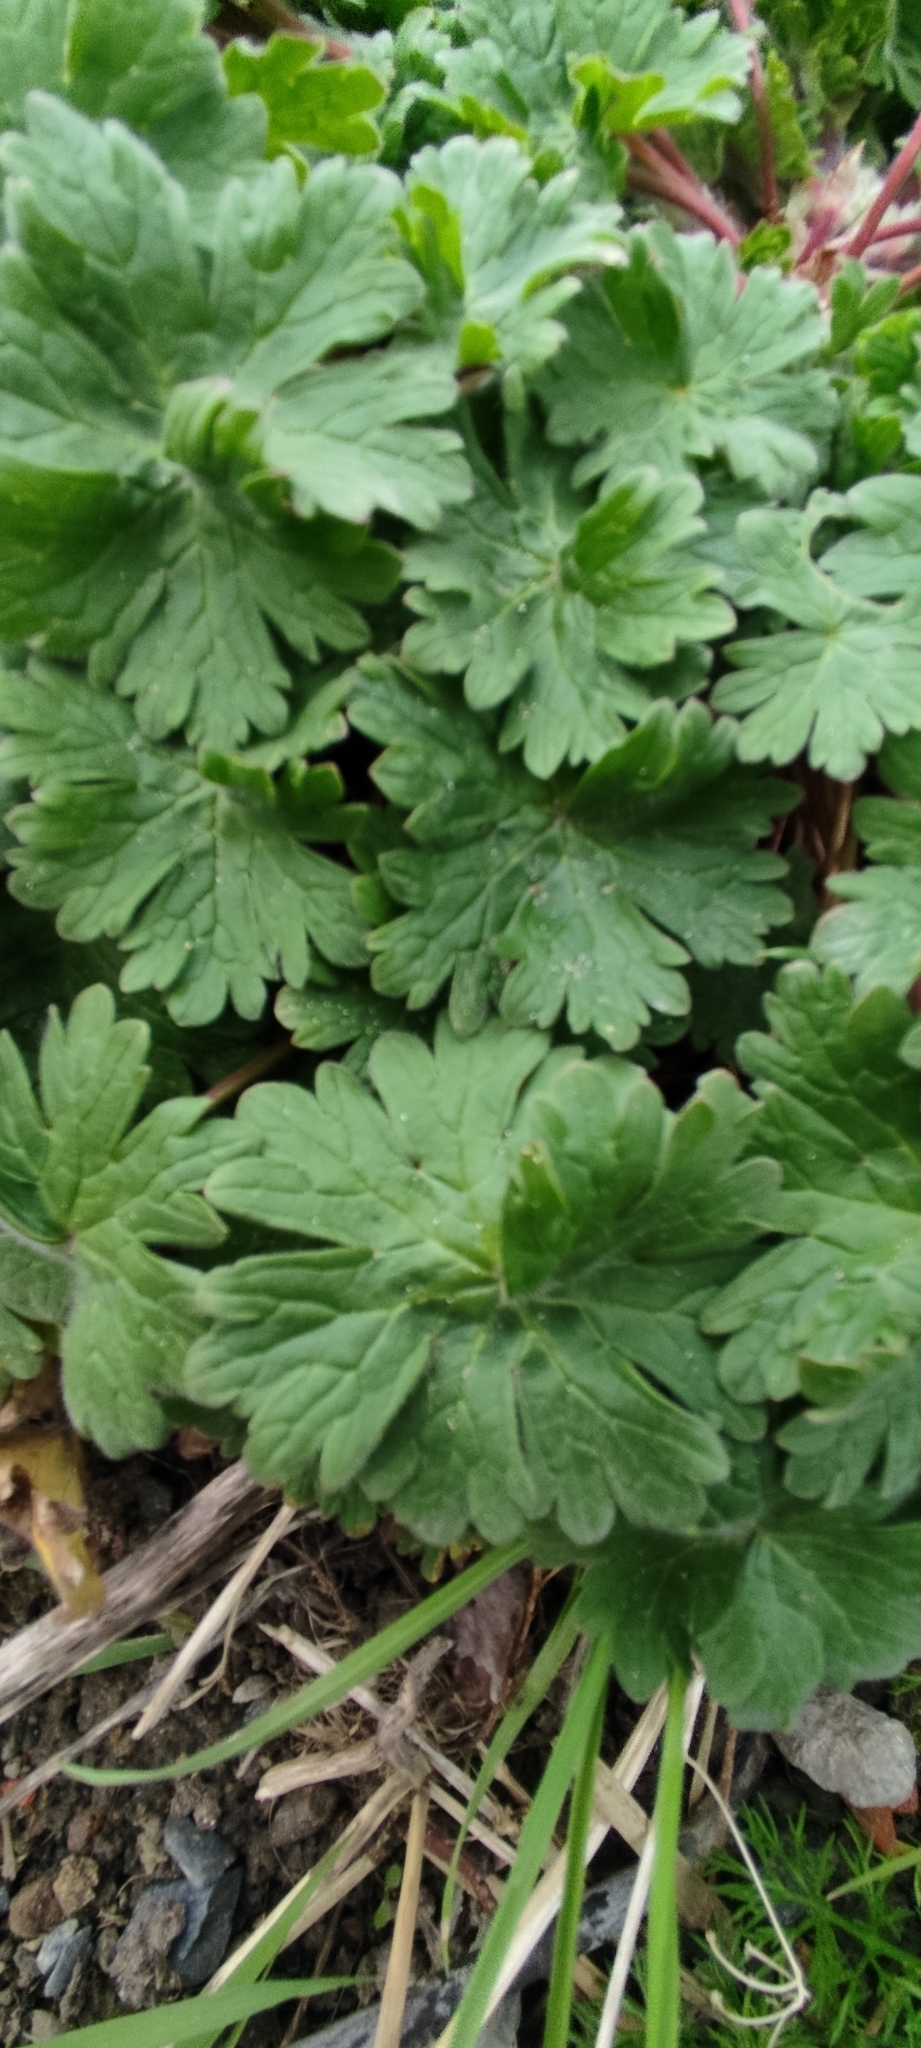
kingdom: Plantae
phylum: Tracheophyta
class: Magnoliopsida
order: Geraniales
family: Geraniaceae
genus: Geranium
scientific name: Geranium molle
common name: Dove's-foot crane's-bill
